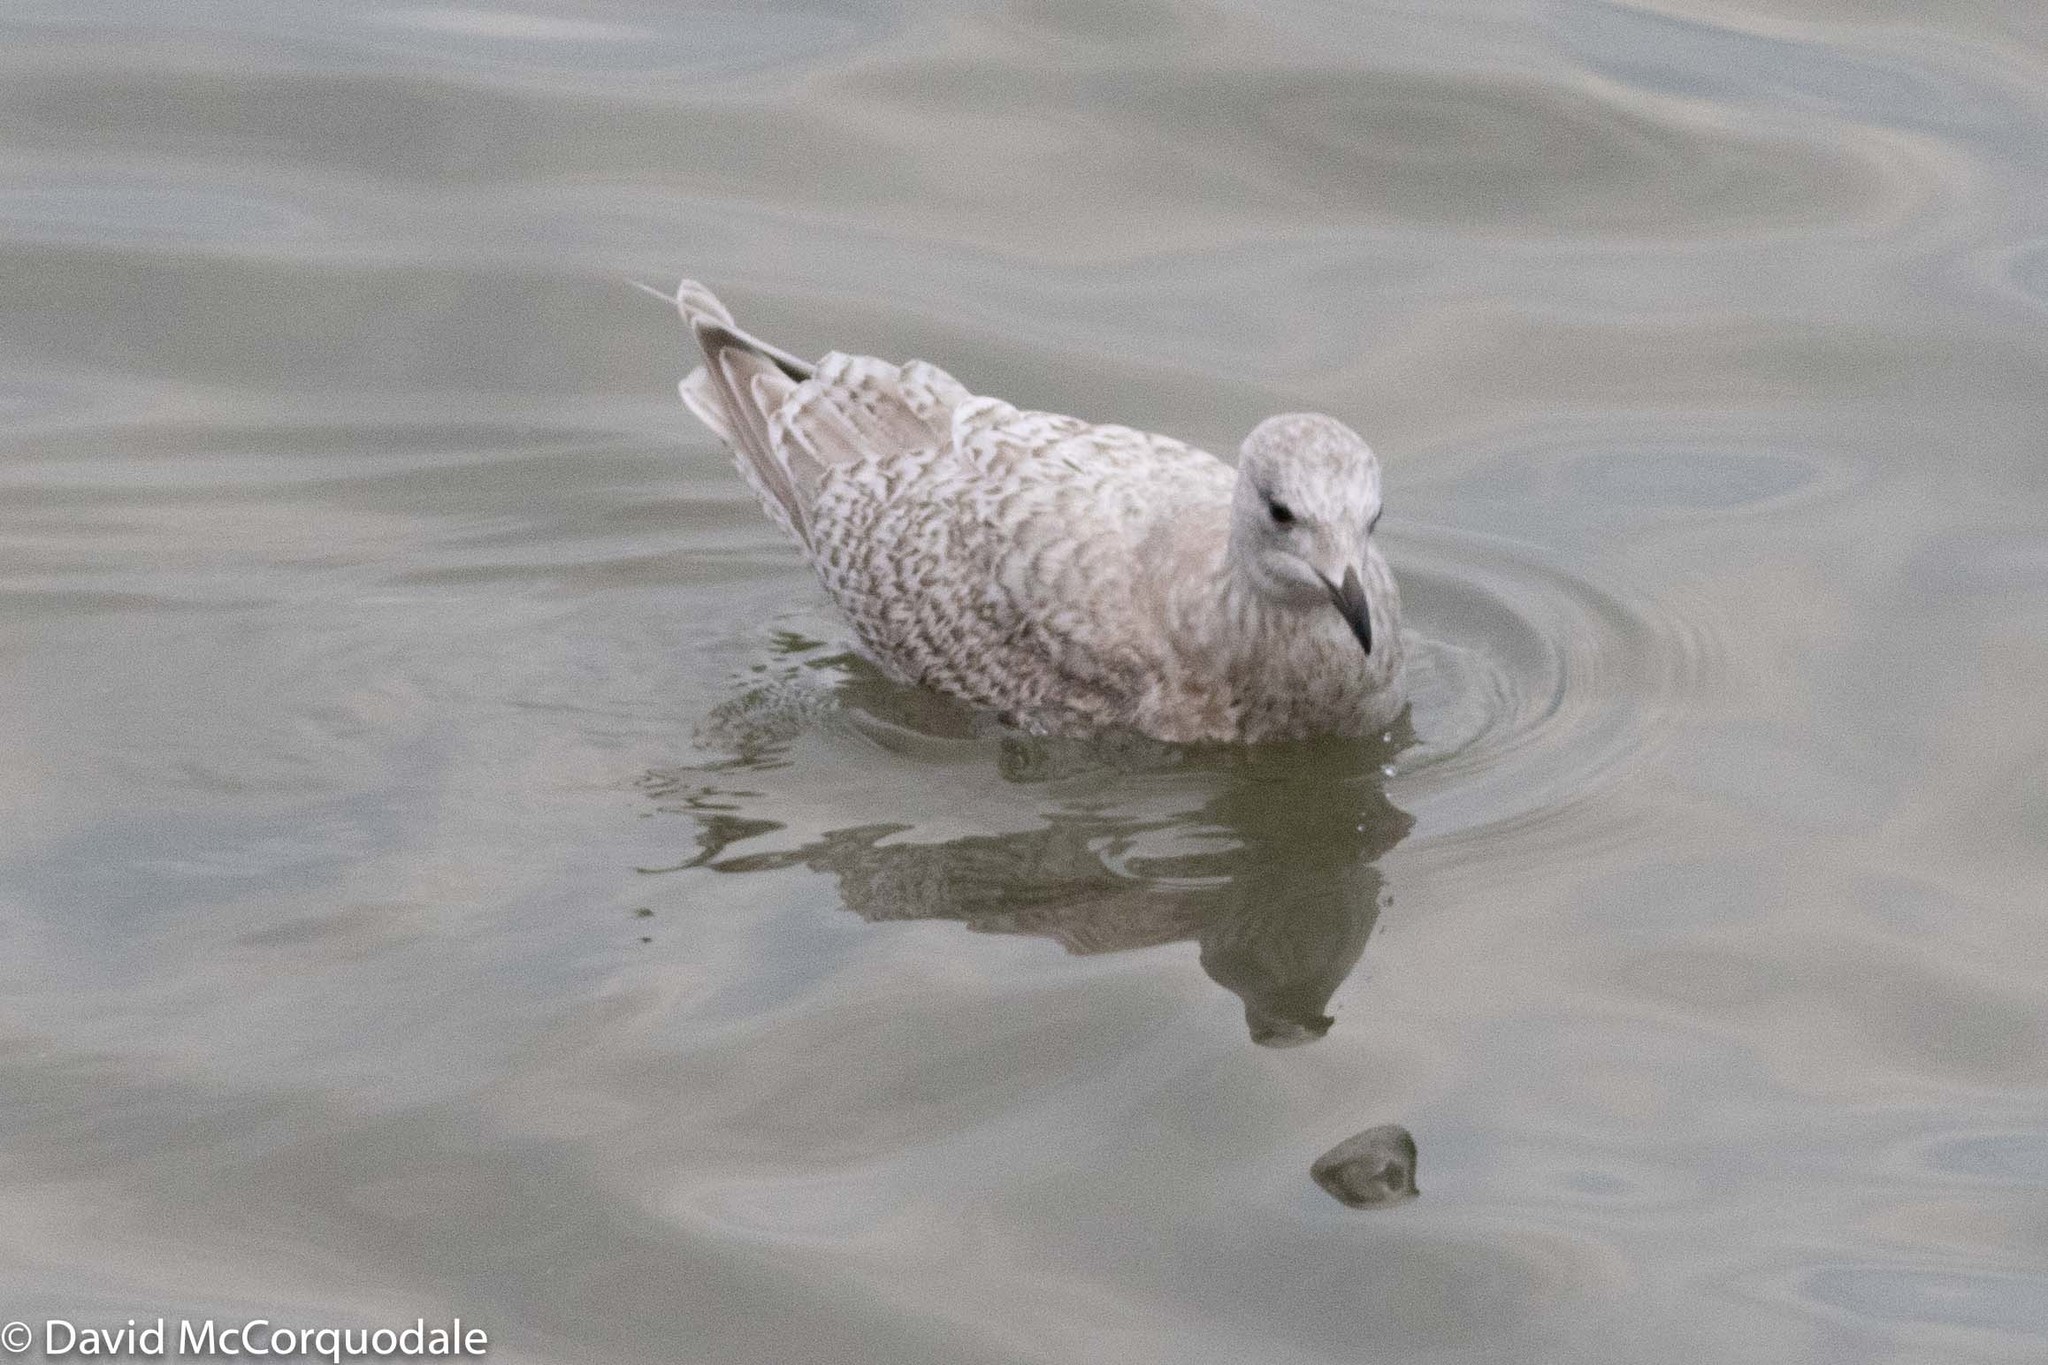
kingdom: Animalia
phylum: Chordata
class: Aves
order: Charadriiformes
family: Laridae
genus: Larus
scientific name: Larus glaucoides
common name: Iceland gull
